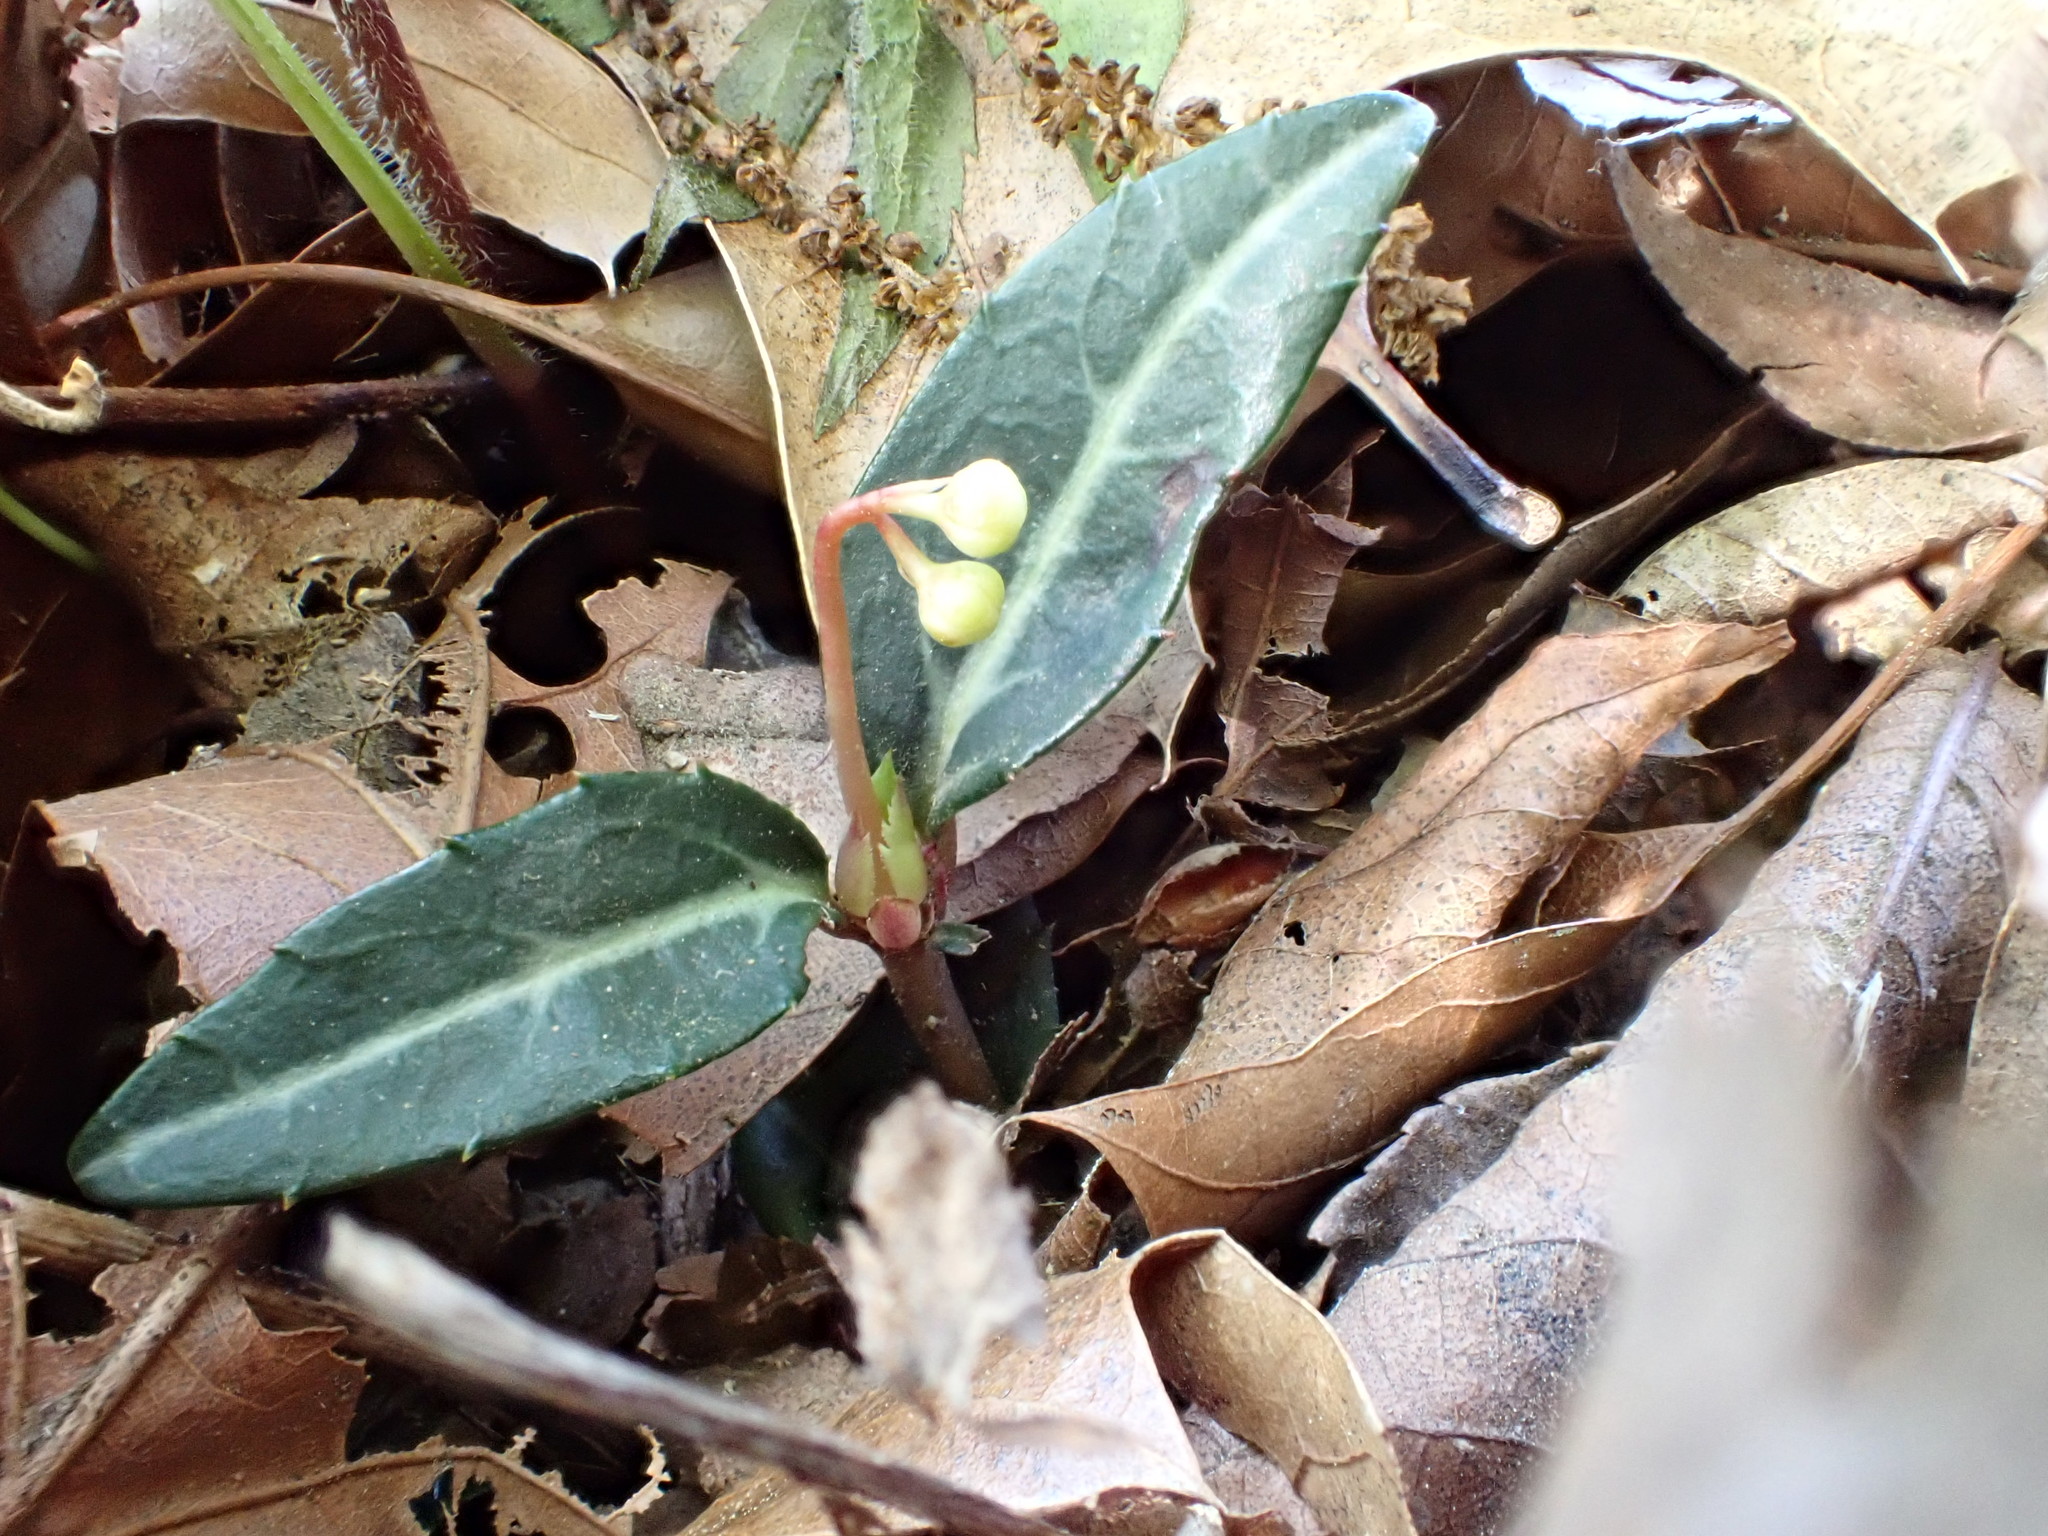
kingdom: Plantae
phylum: Tracheophyta
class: Magnoliopsida
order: Ericales
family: Ericaceae
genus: Chimaphila
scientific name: Chimaphila maculata
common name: Spotted pipsissewa
